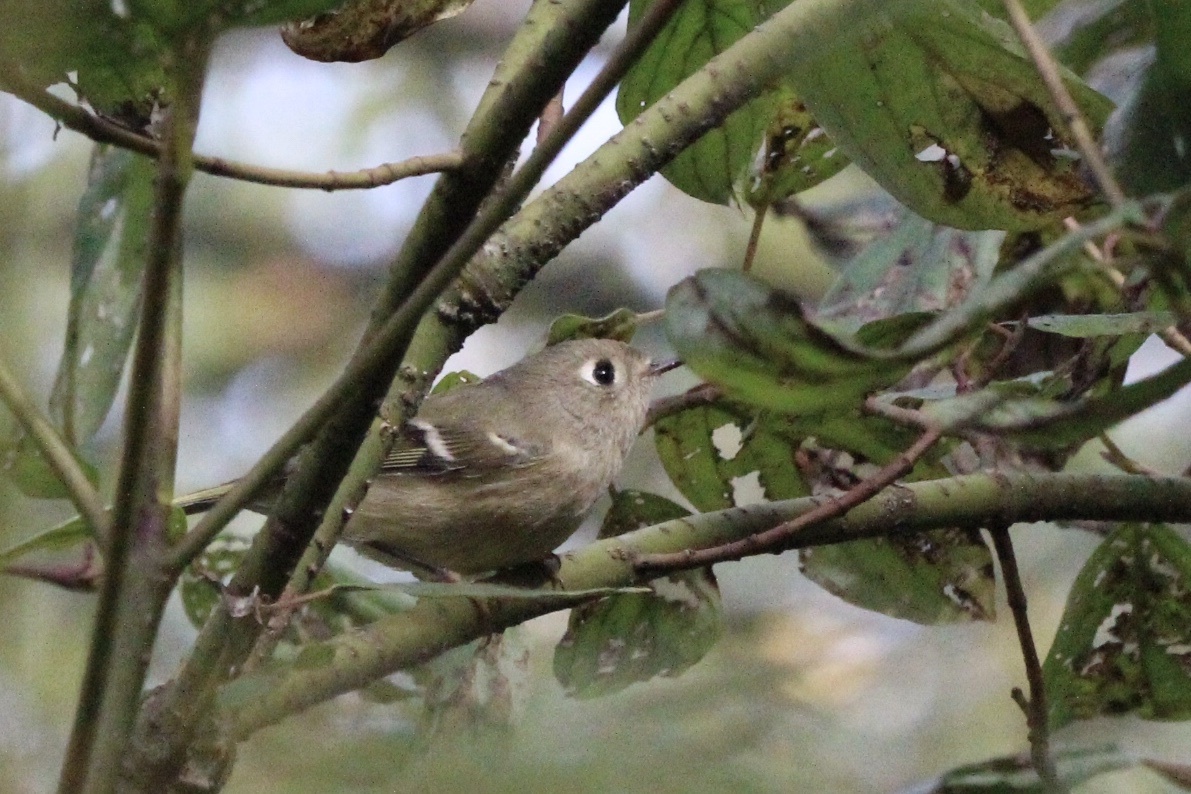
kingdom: Animalia
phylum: Chordata
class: Aves
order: Passeriformes
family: Regulidae
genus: Regulus
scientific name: Regulus calendula
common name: Ruby-crowned kinglet
